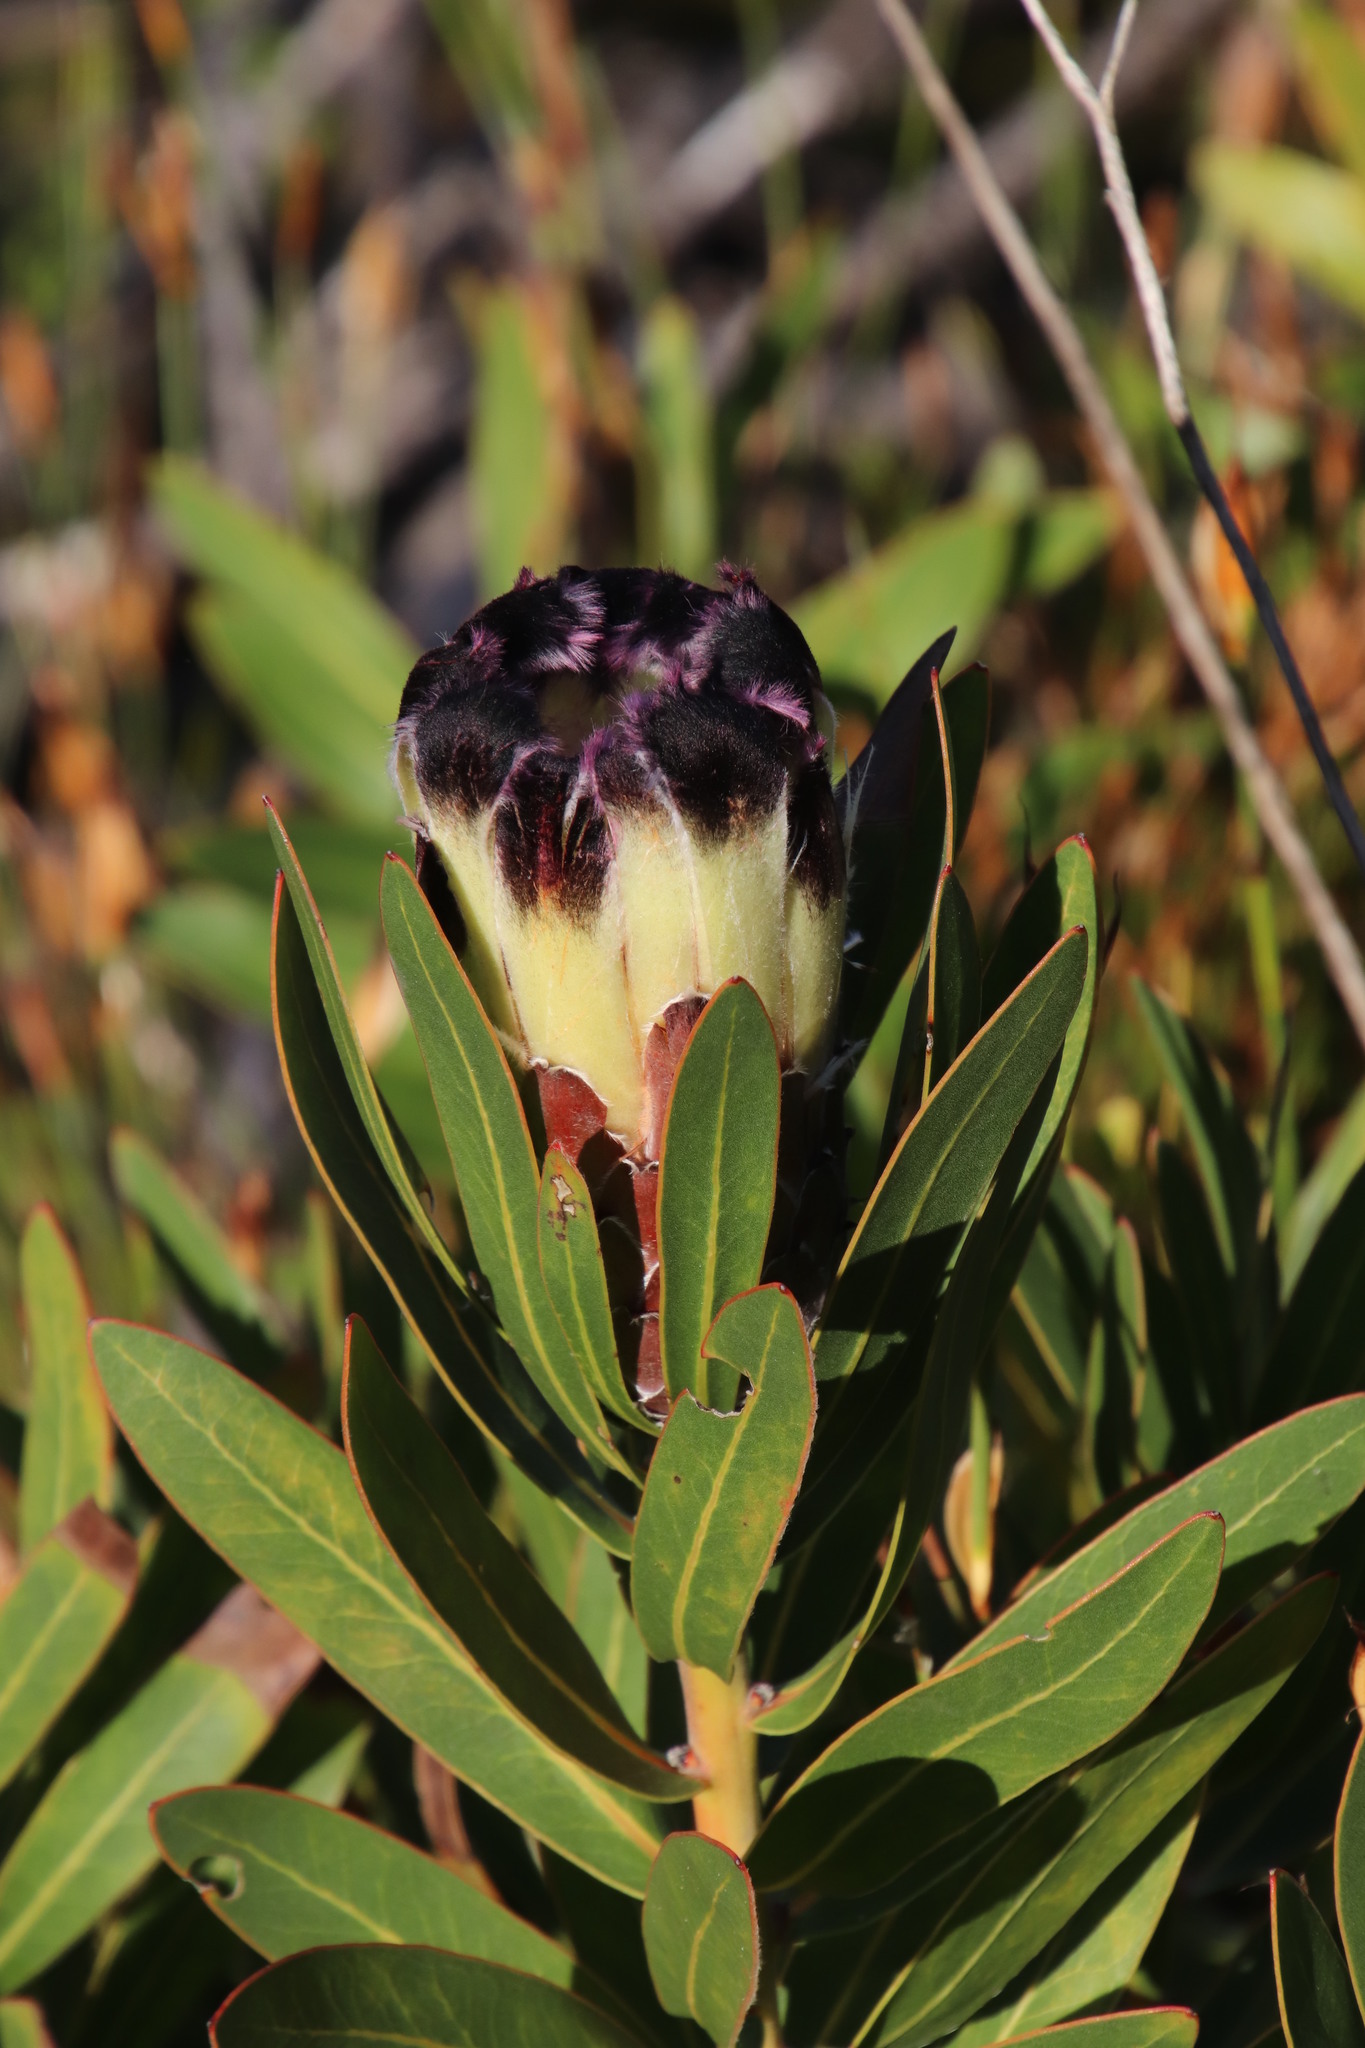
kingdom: Plantae
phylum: Tracheophyta
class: Magnoliopsida
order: Proteales
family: Proteaceae
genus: Protea
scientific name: Protea lepidocarpodendron
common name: Black-bearded protea
